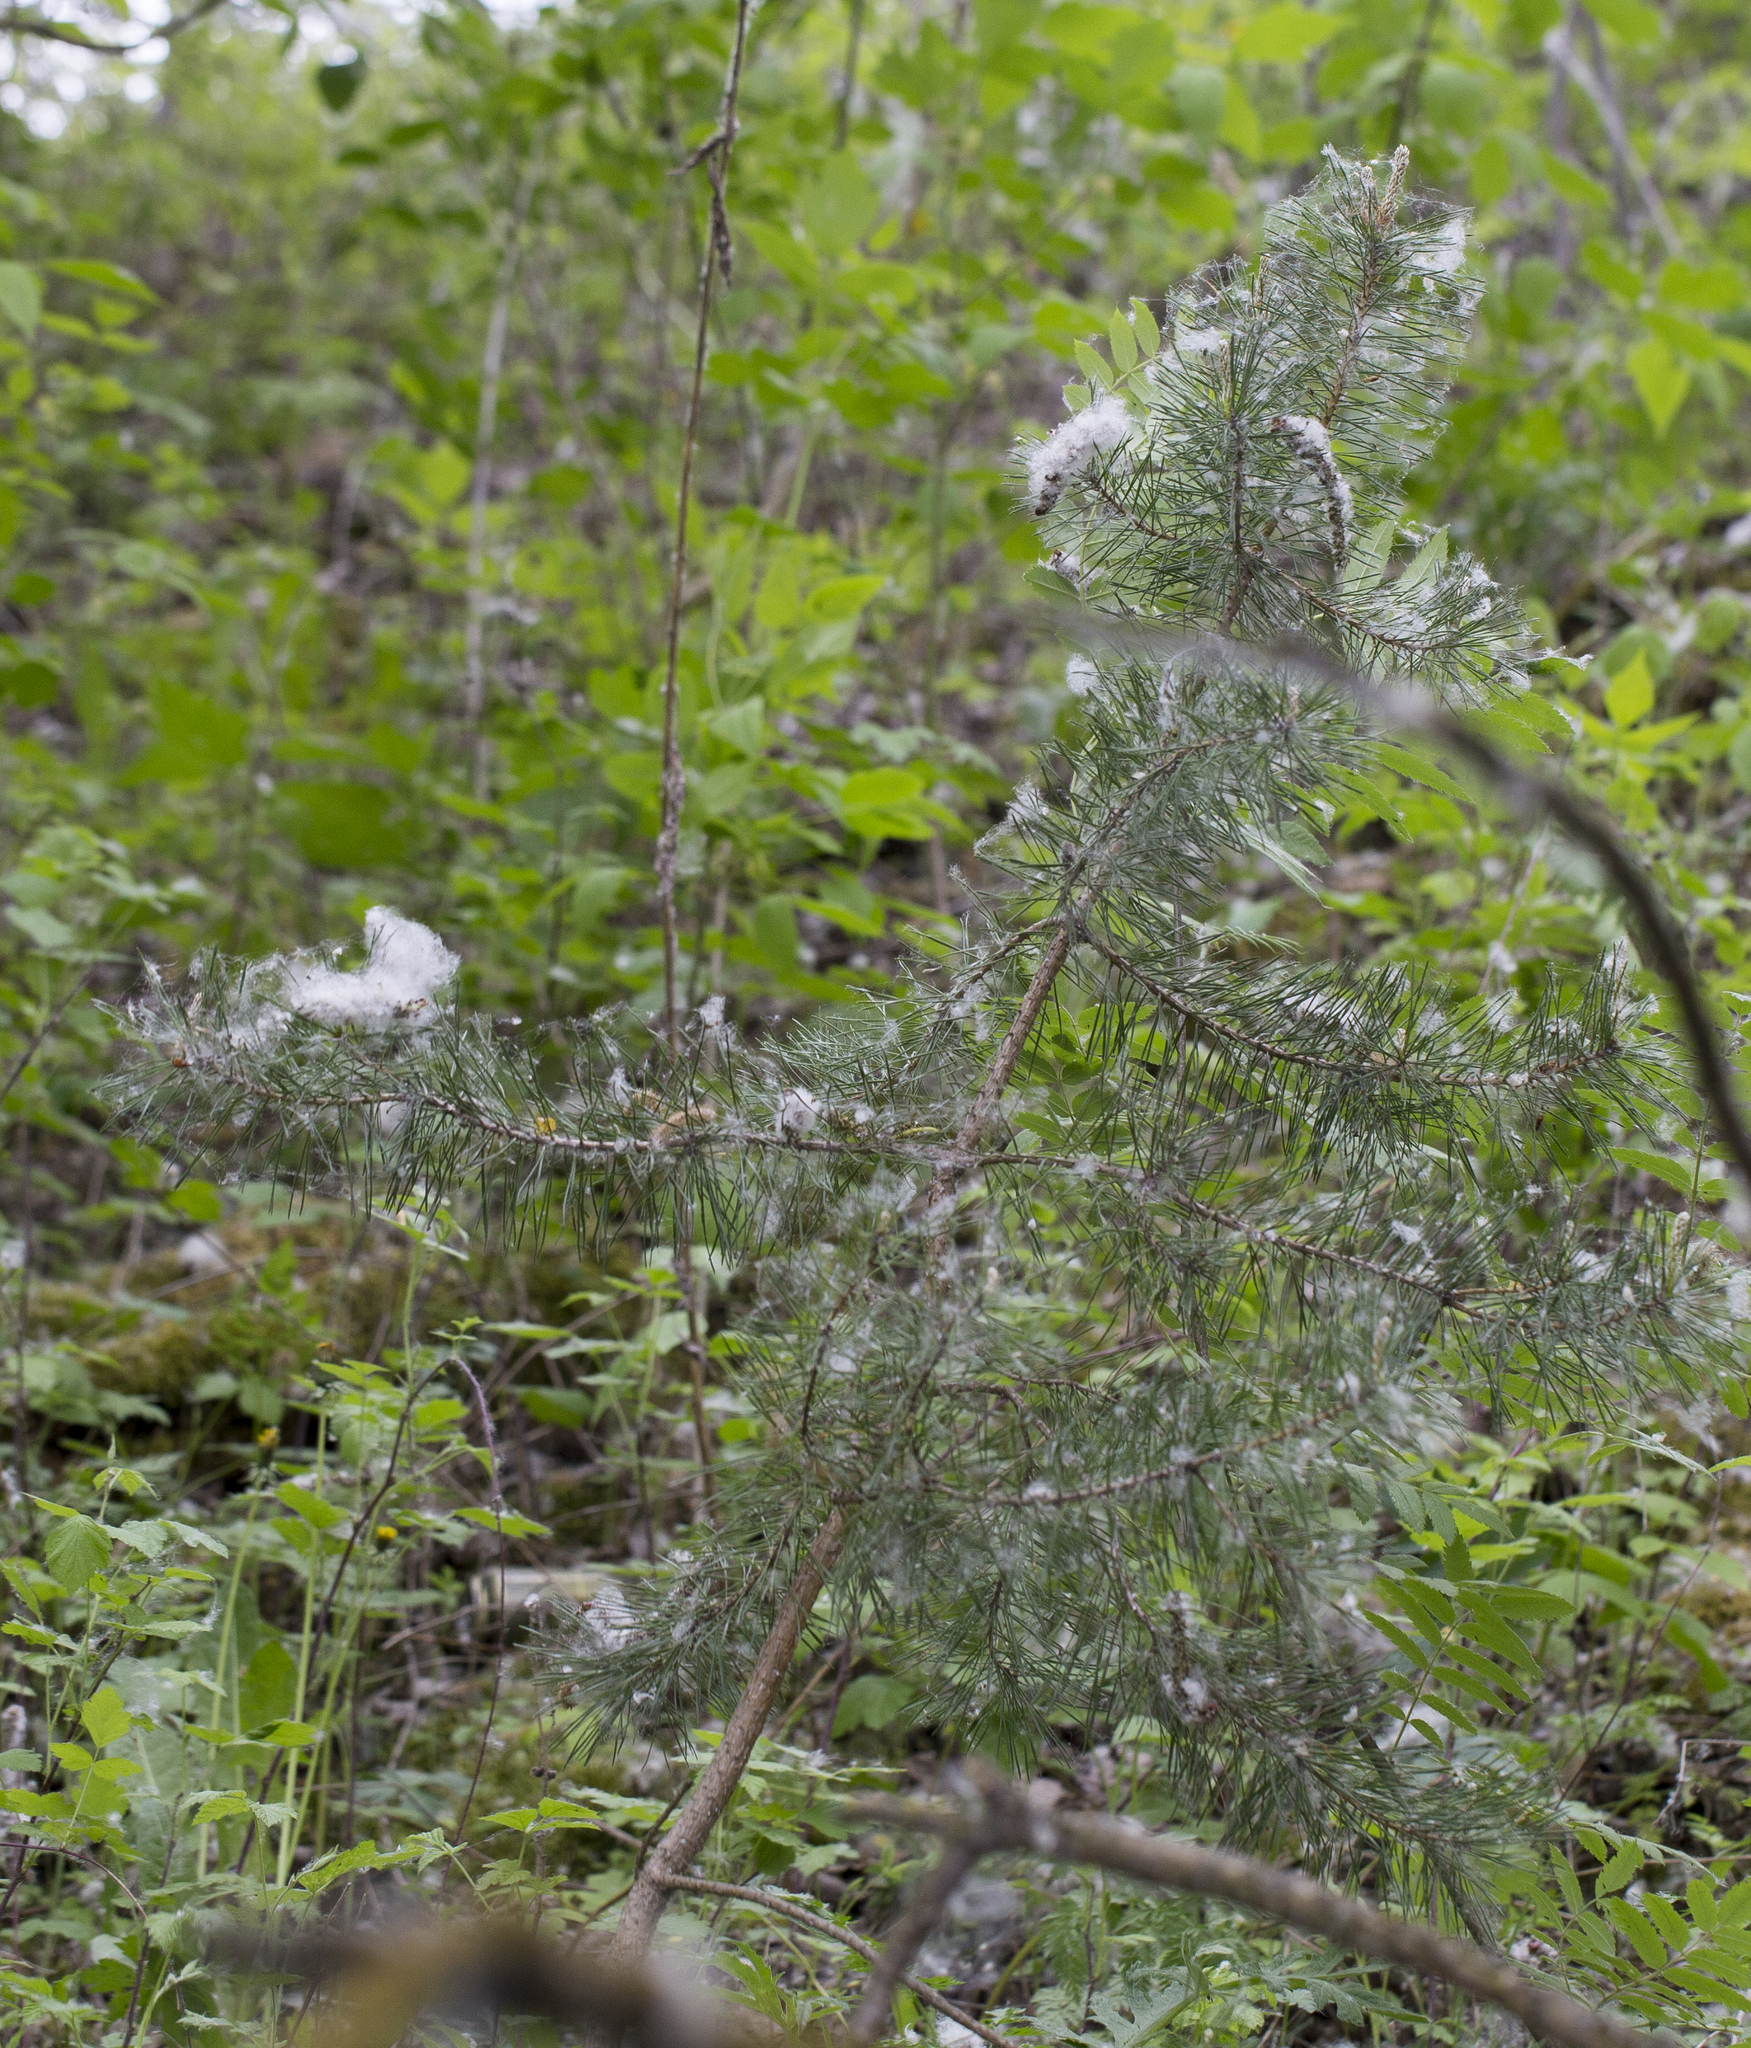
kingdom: Plantae
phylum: Tracheophyta
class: Pinopsida
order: Pinales
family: Pinaceae
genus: Pinus
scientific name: Pinus sylvestris
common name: Scots pine
